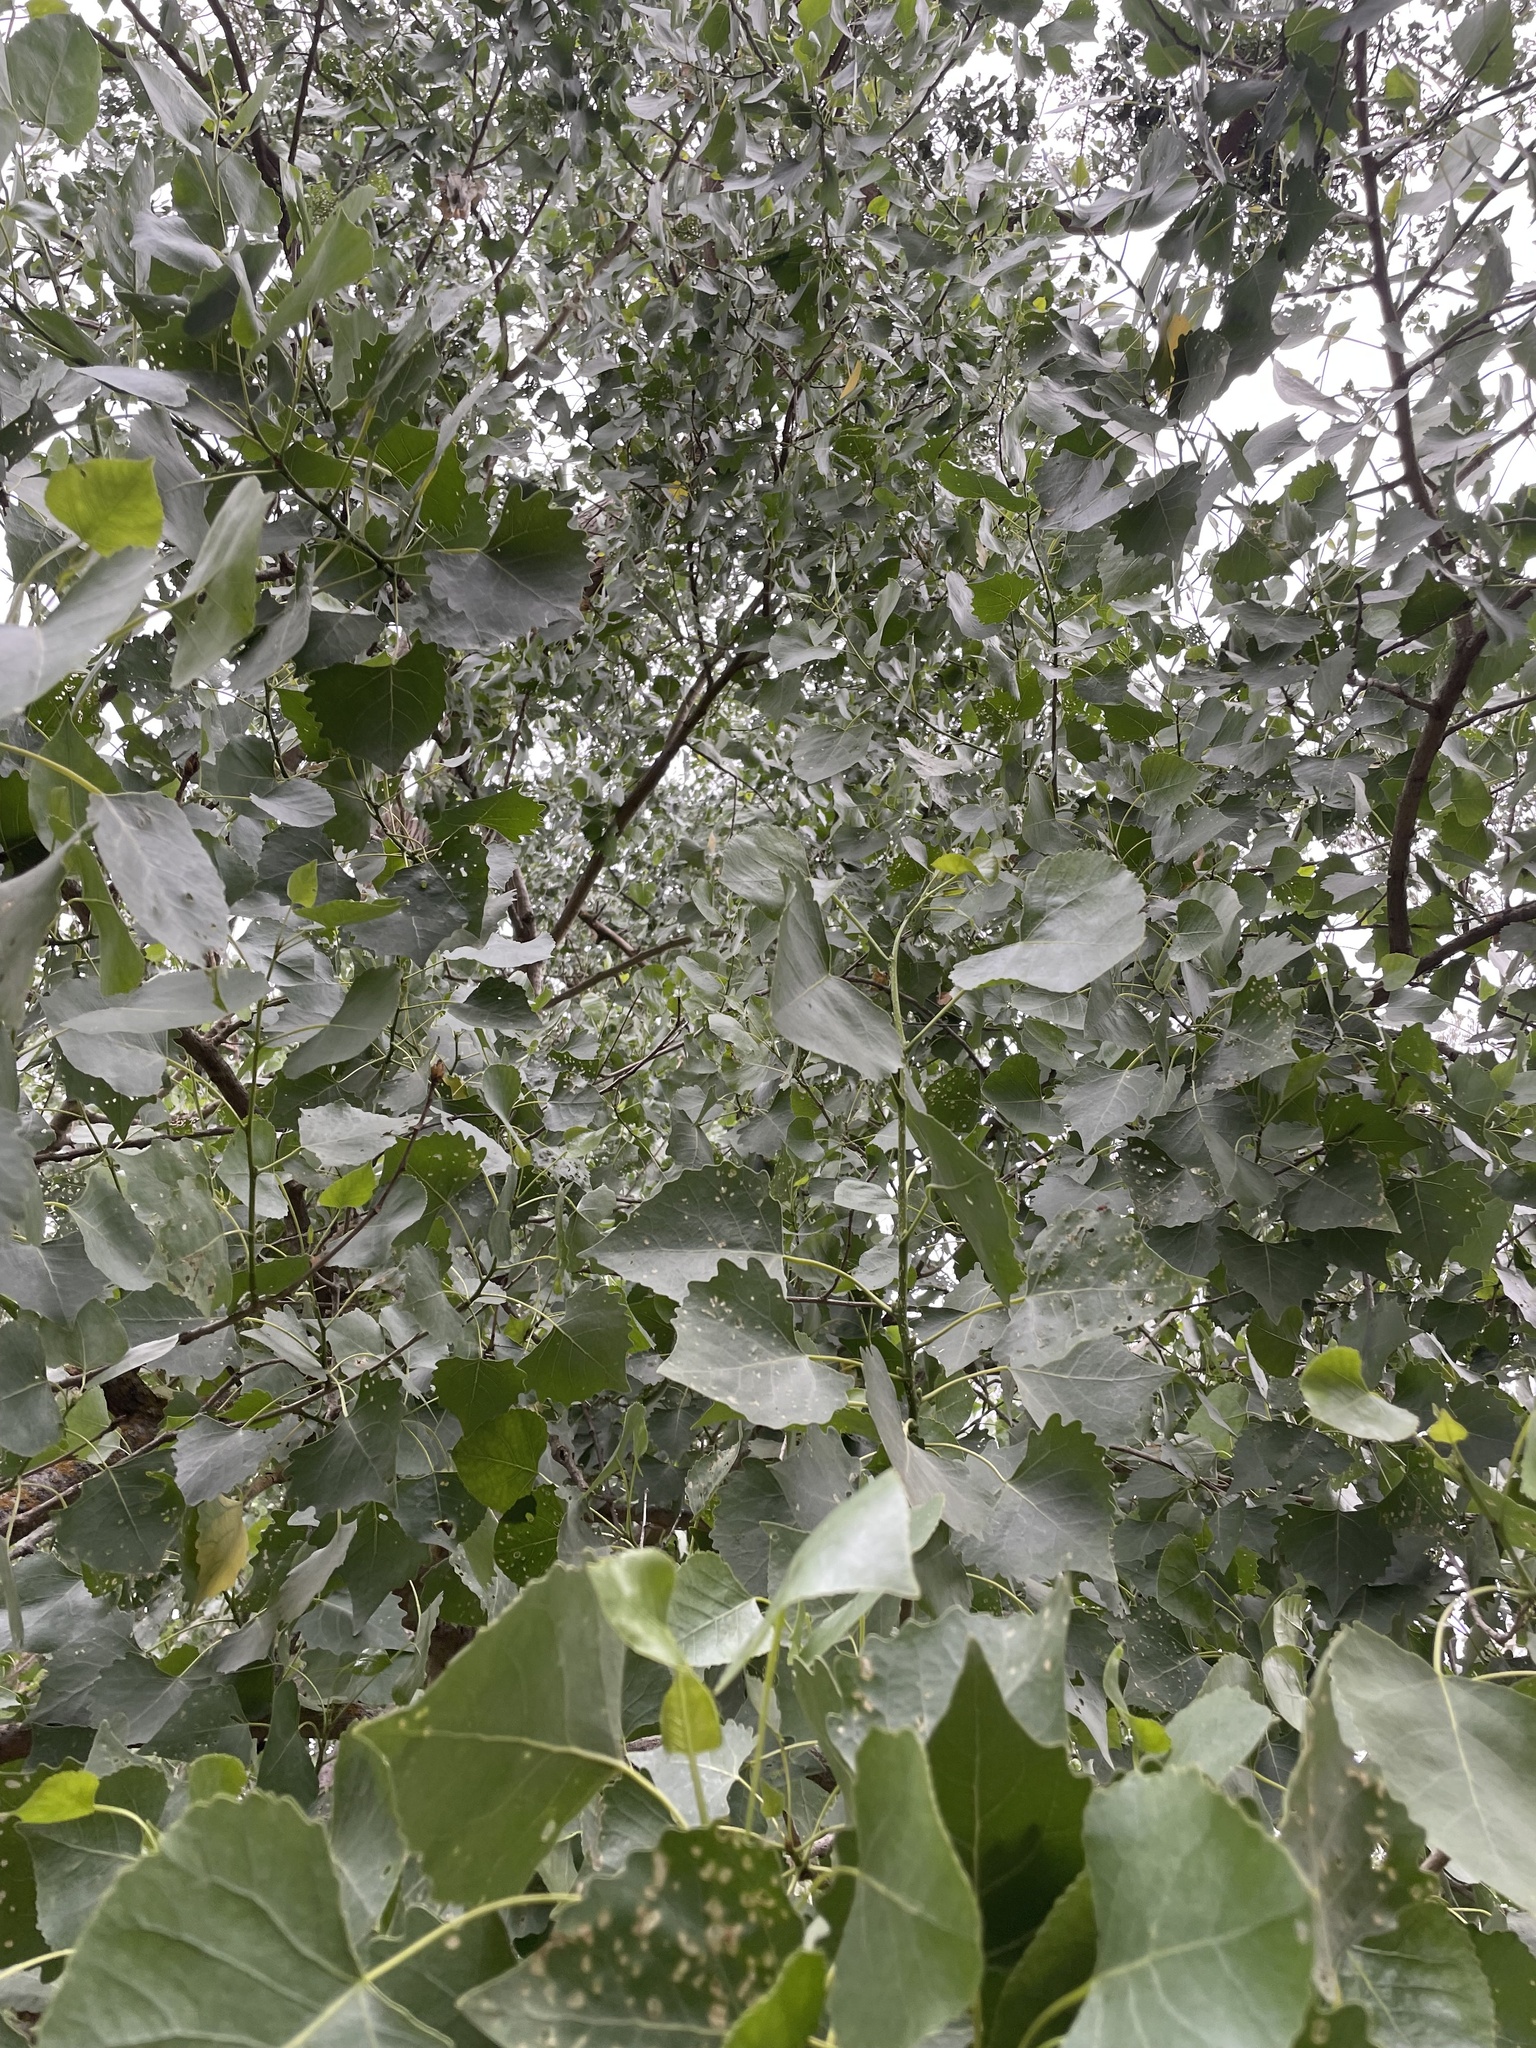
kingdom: Plantae
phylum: Tracheophyta
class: Magnoliopsida
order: Malpighiales
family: Salicaceae
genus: Populus
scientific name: Populus fremontii
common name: Fremont's cottonwood
